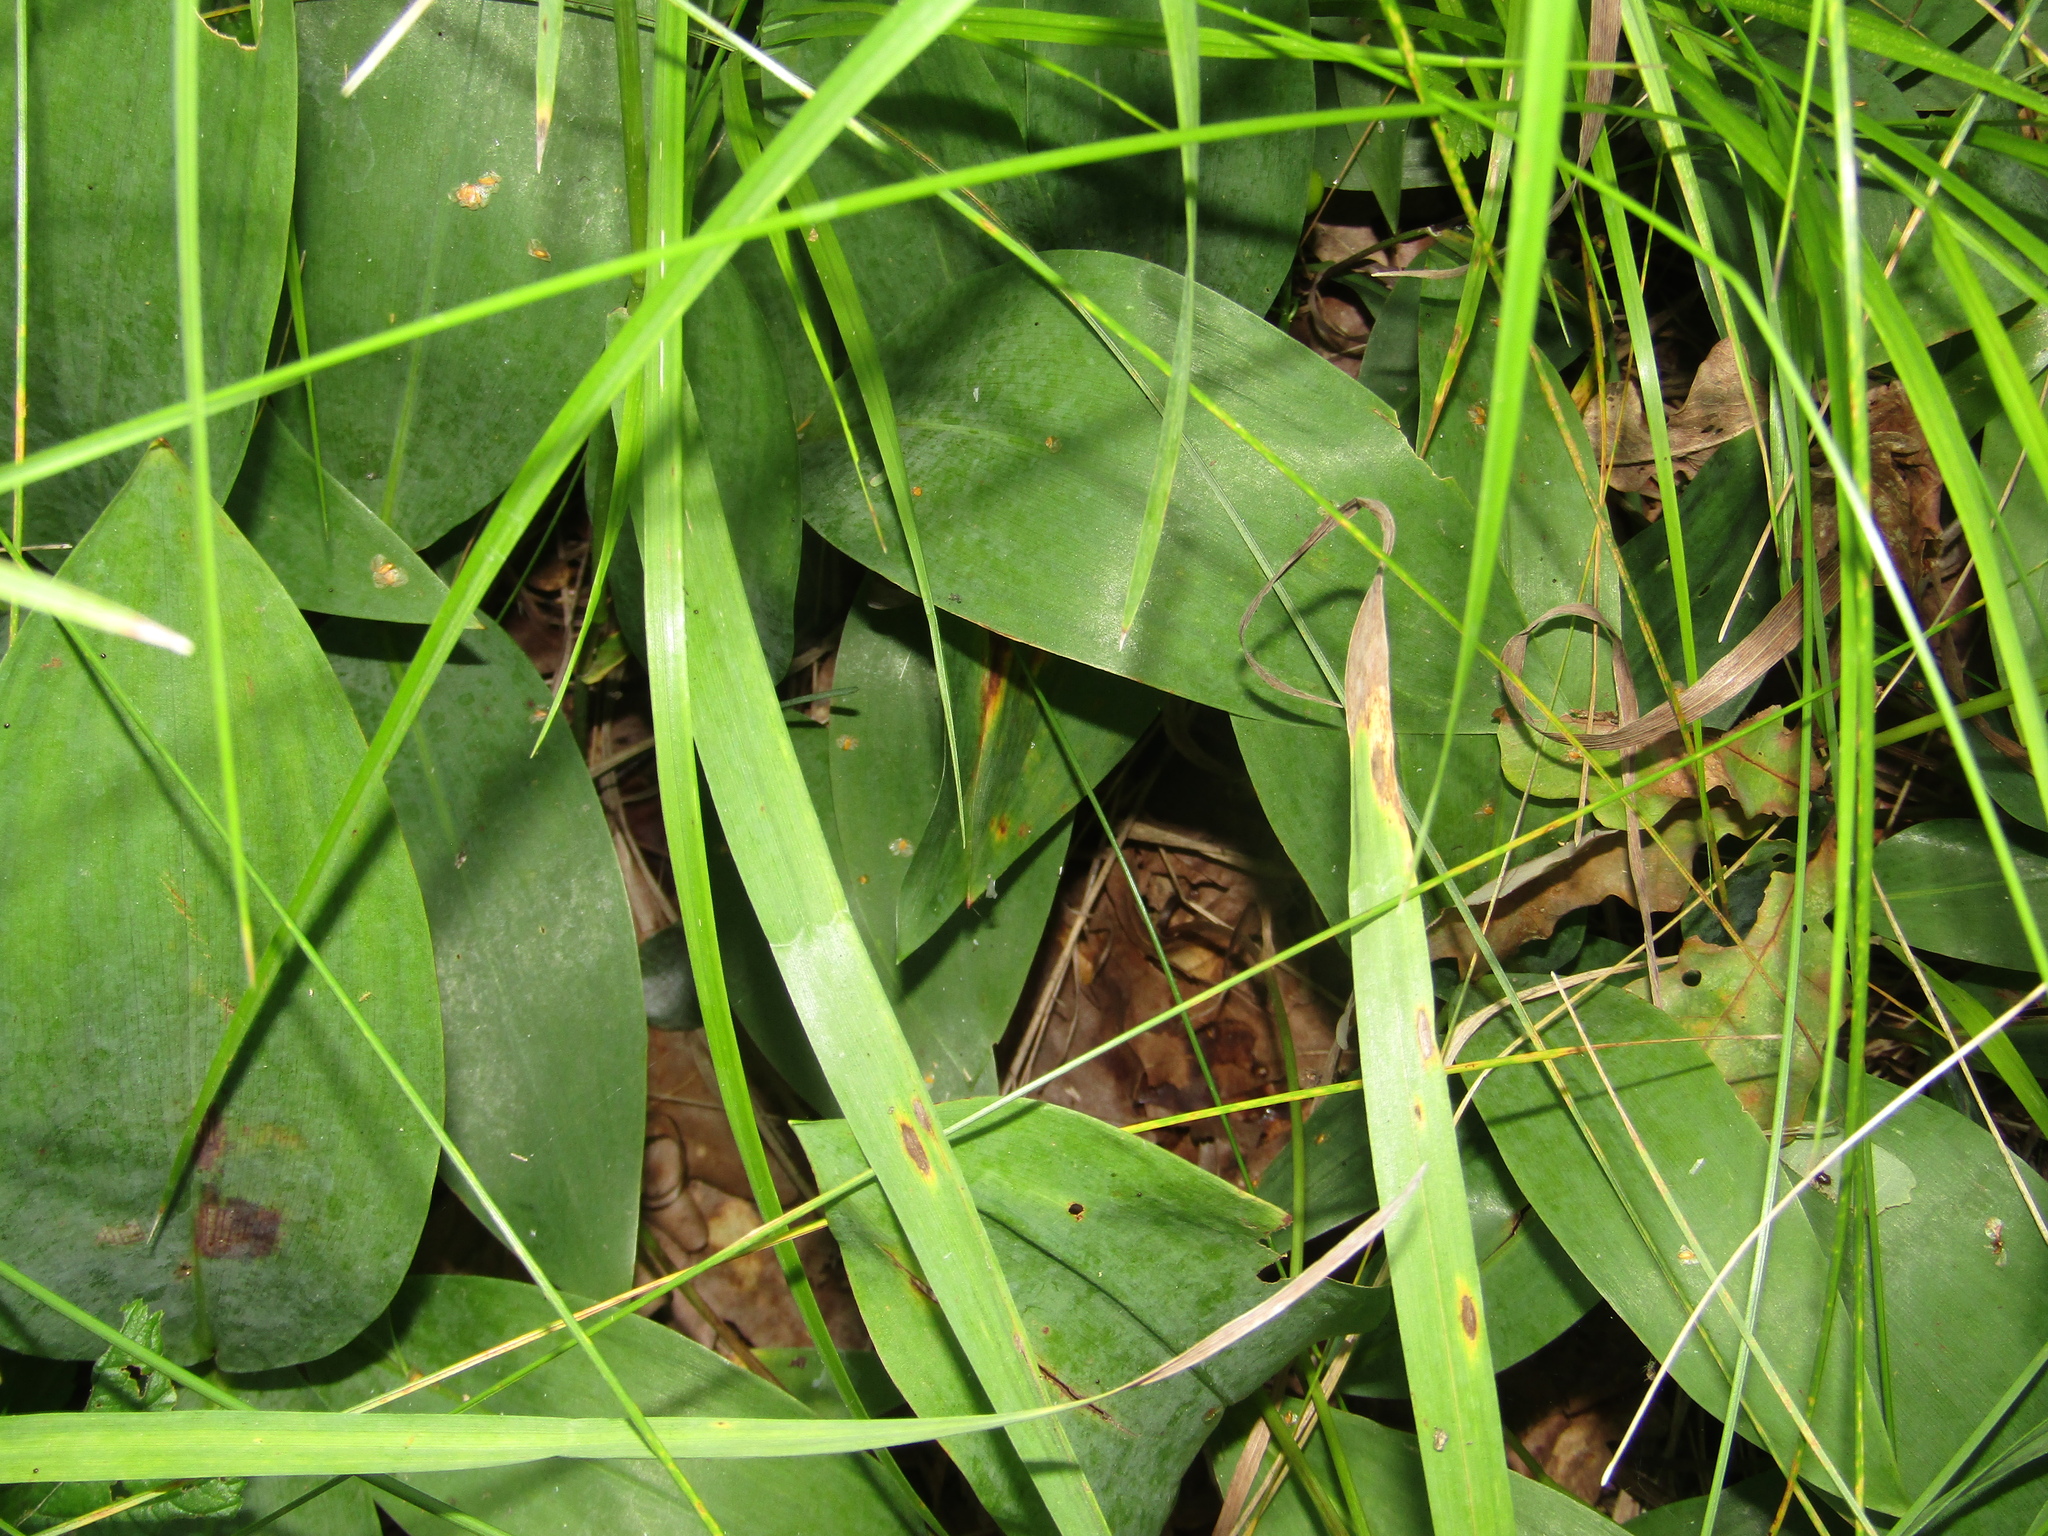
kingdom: Plantae
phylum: Tracheophyta
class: Liliopsida
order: Asparagales
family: Asparagaceae
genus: Convallaria
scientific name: Convallaria majalis
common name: Lily-of-the-valley
